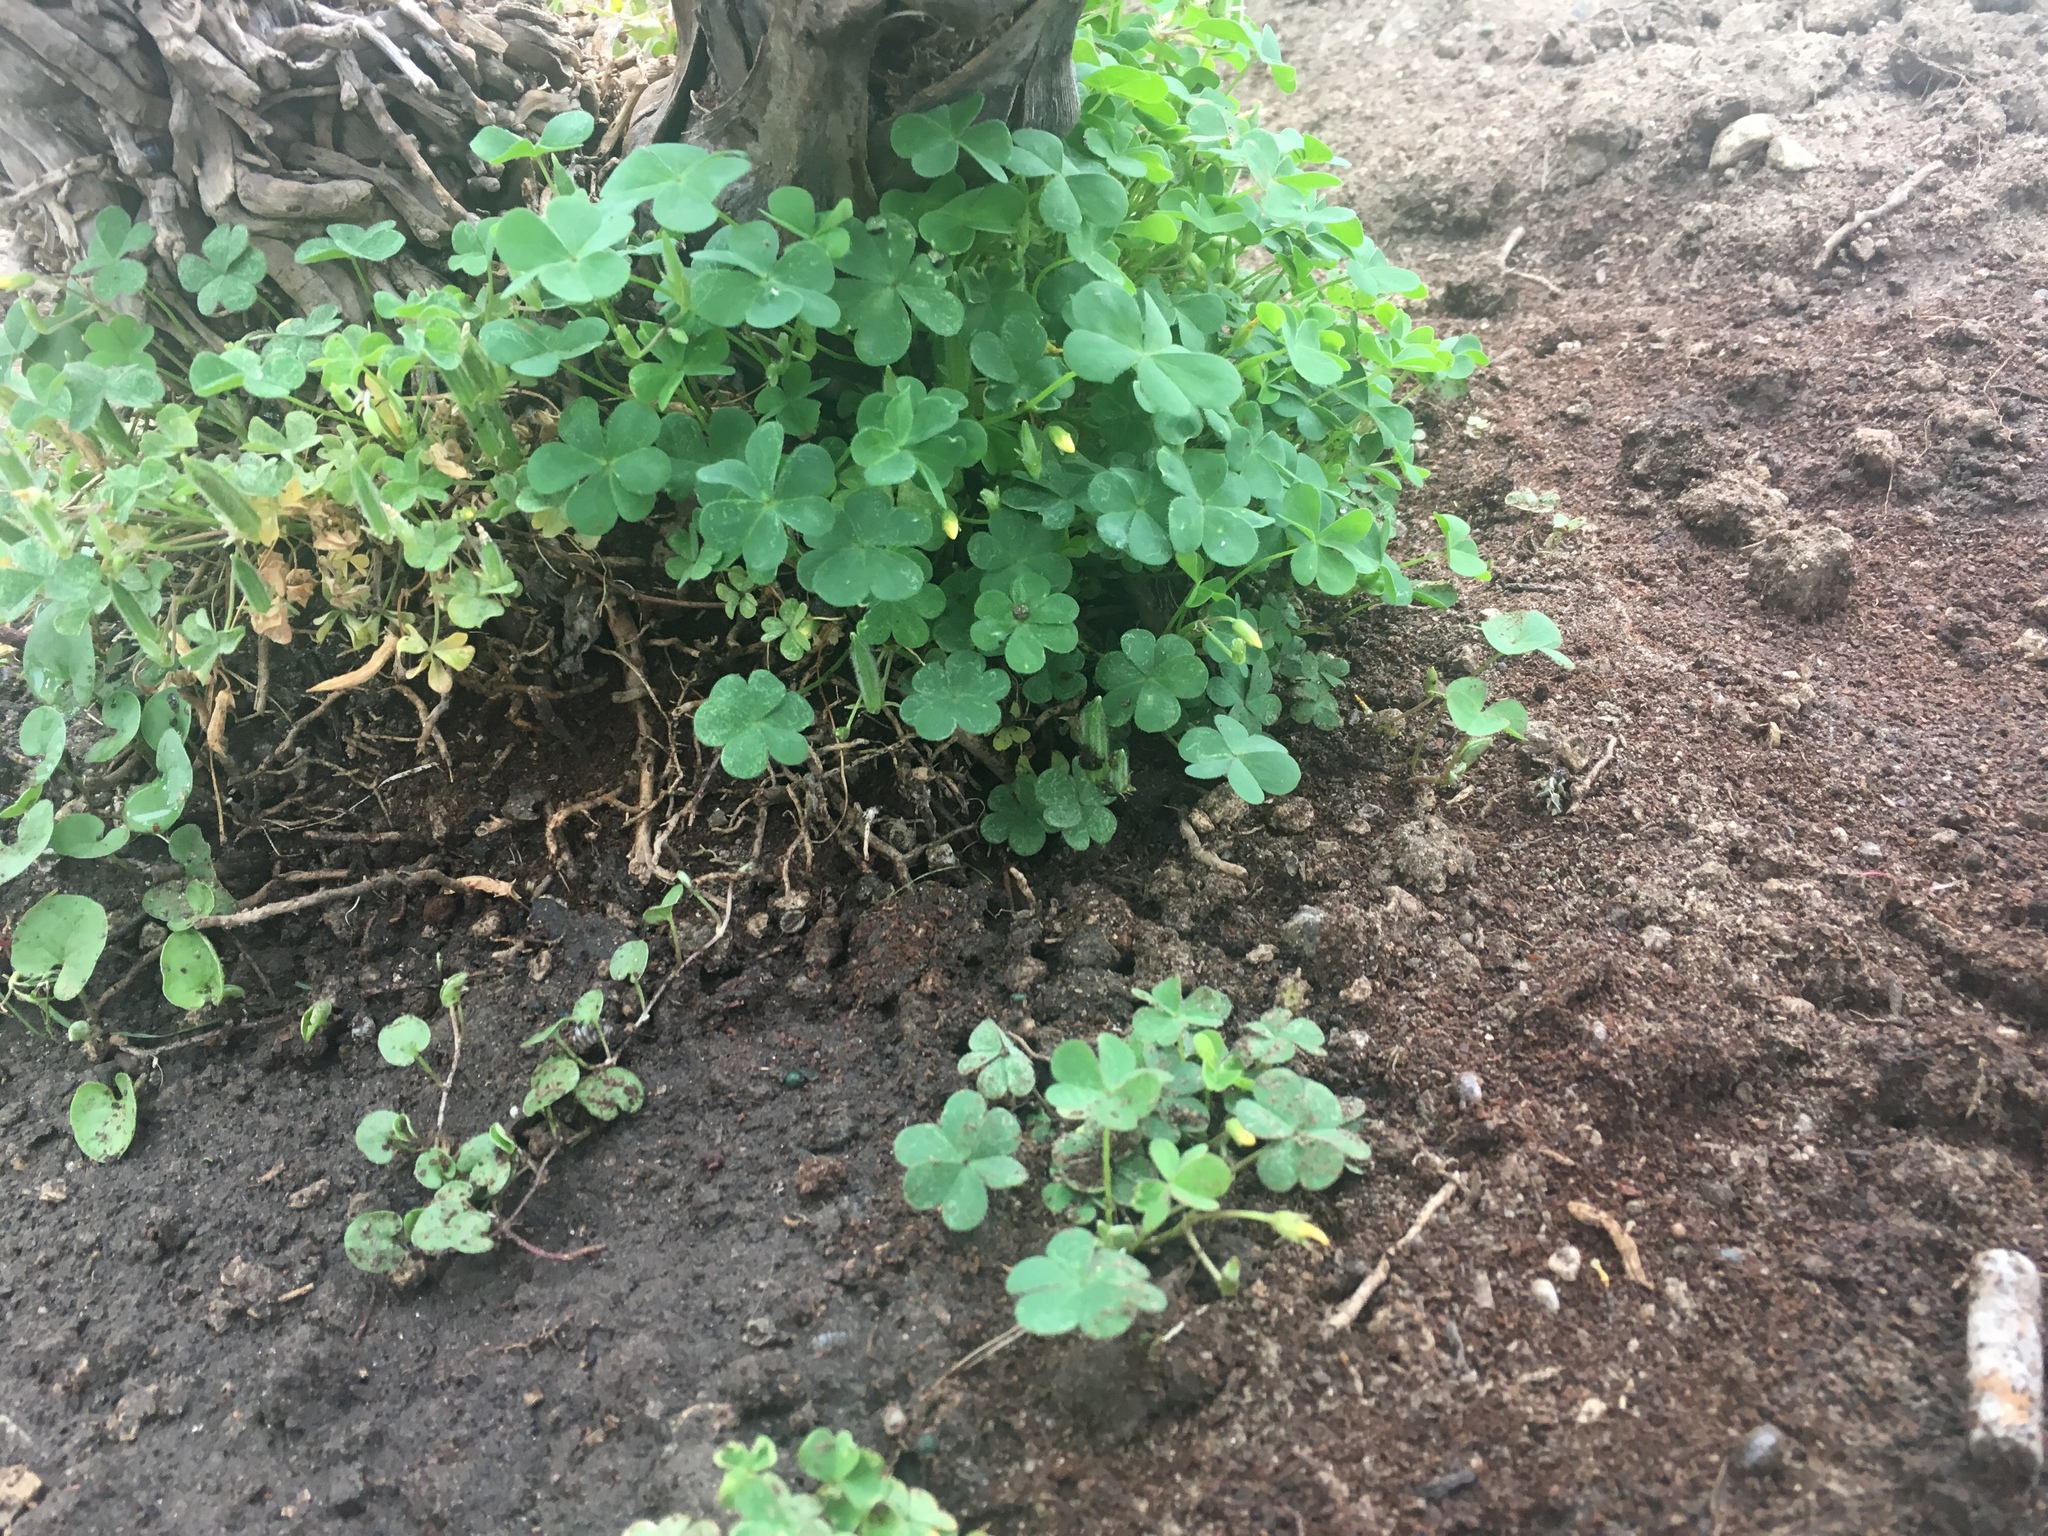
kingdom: Plantae
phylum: Tracheophyta
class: Magnoliopsida
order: Oxalidales
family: Oxalidaceae
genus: Oxalis
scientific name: Oxalis corniculata
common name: Procumbent yellow-sorrel
